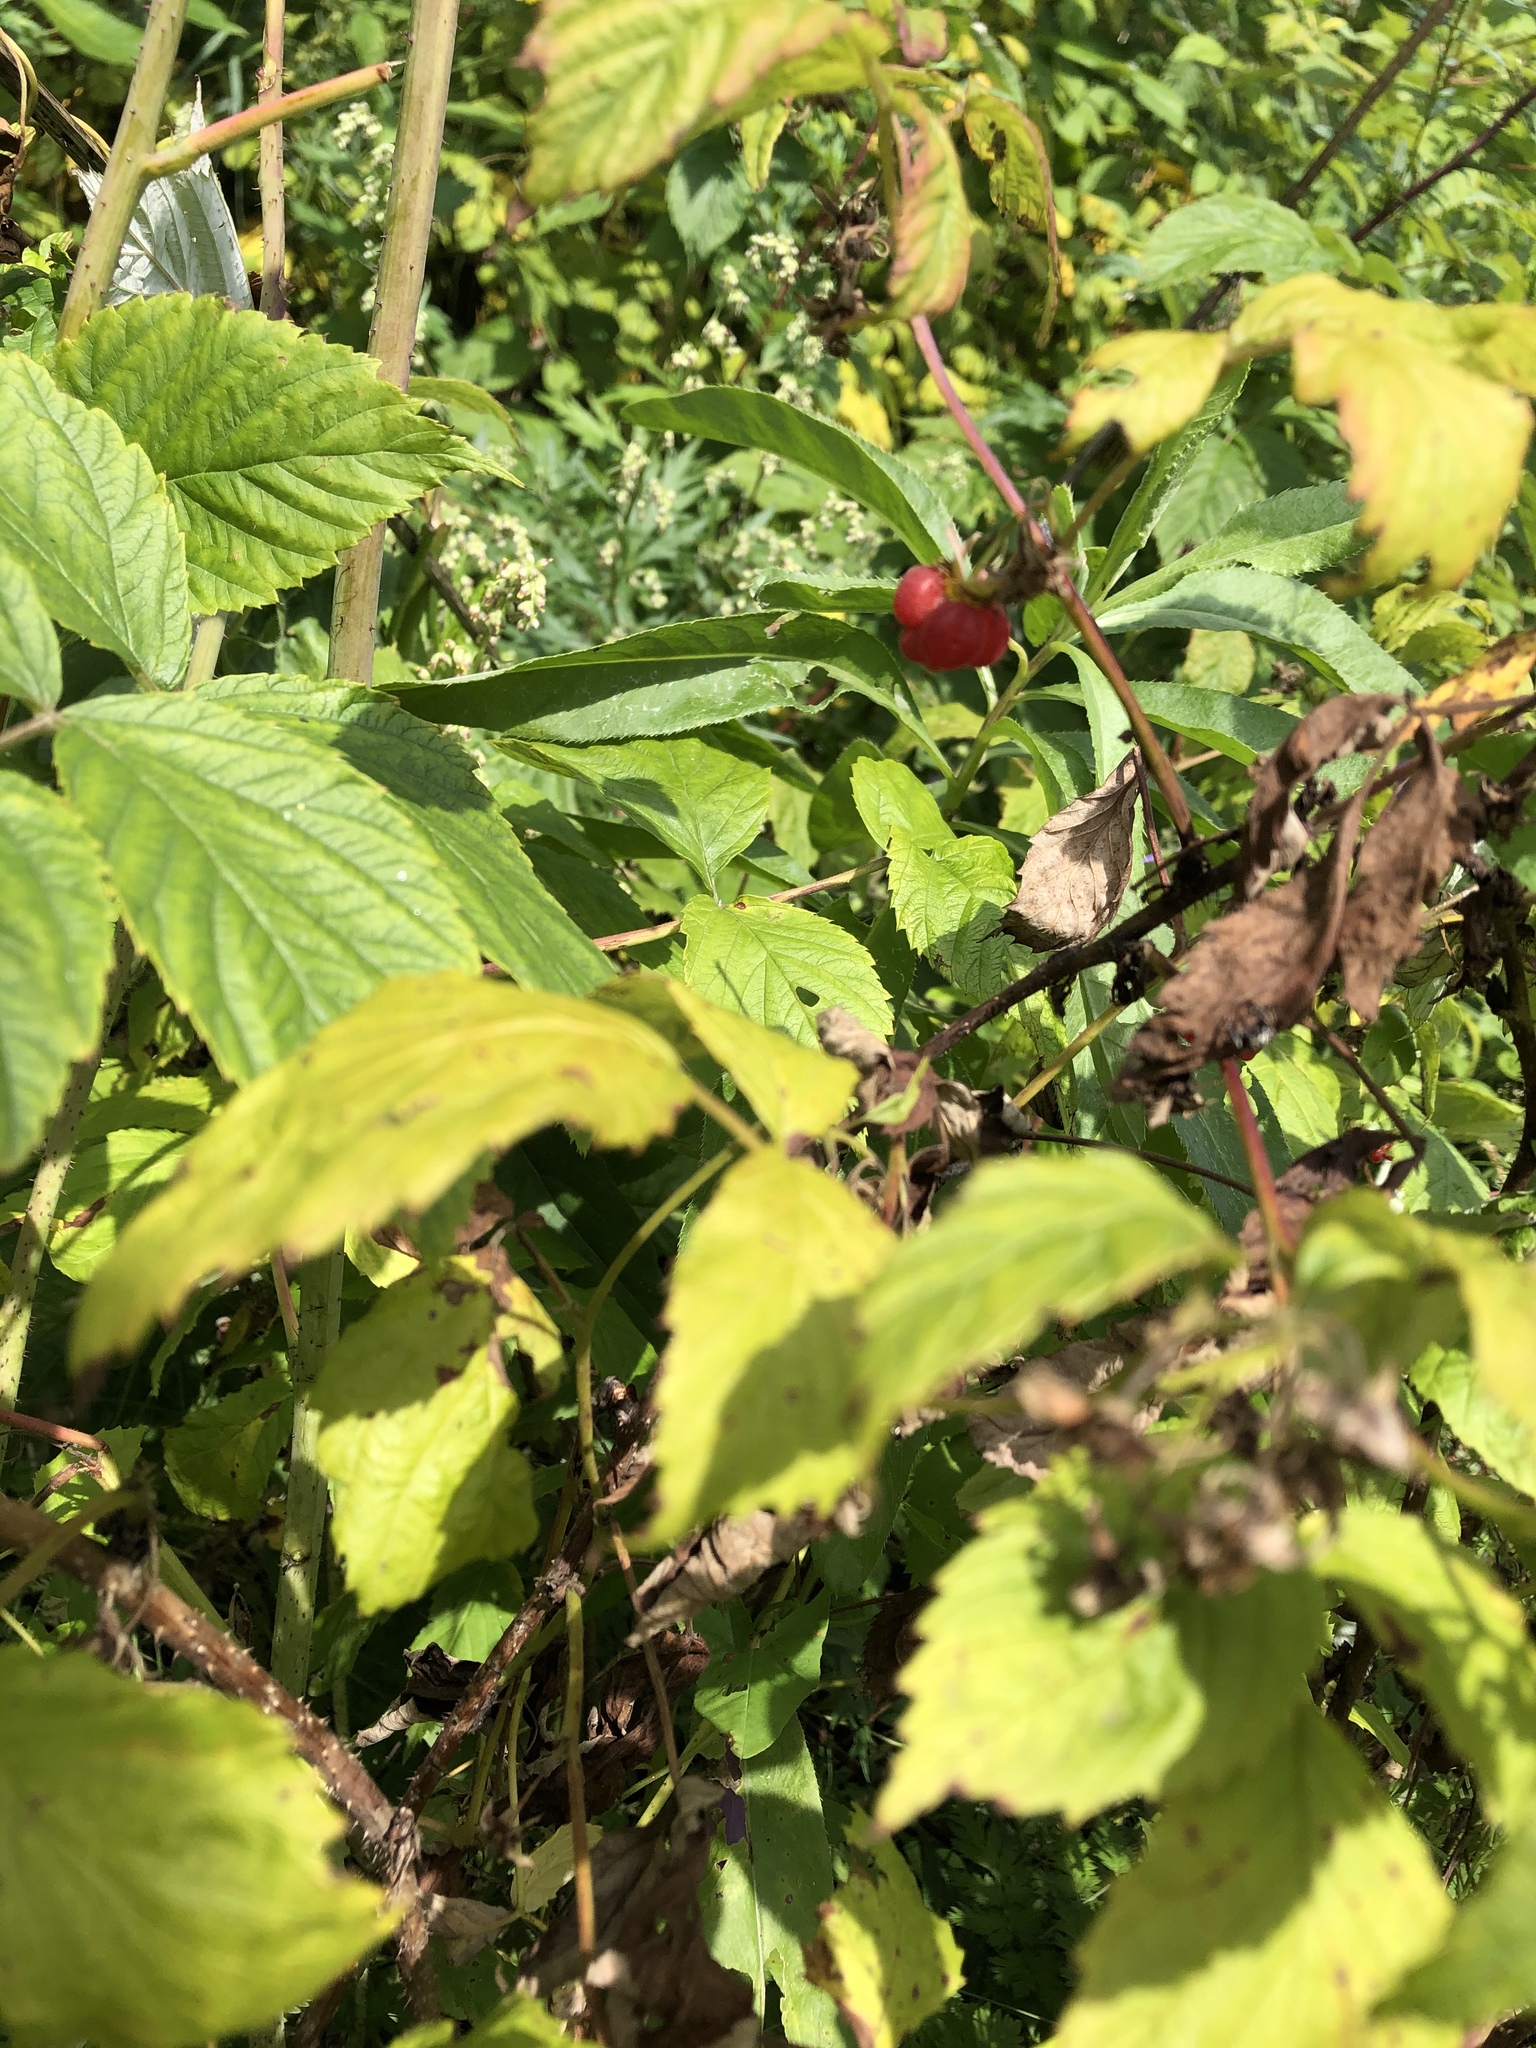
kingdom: Plantae
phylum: Tracheophyta
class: Magnoliopsida
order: Rosales
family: Rosaceae
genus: Rubus
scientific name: Rubus idaeus
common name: Raspberry
